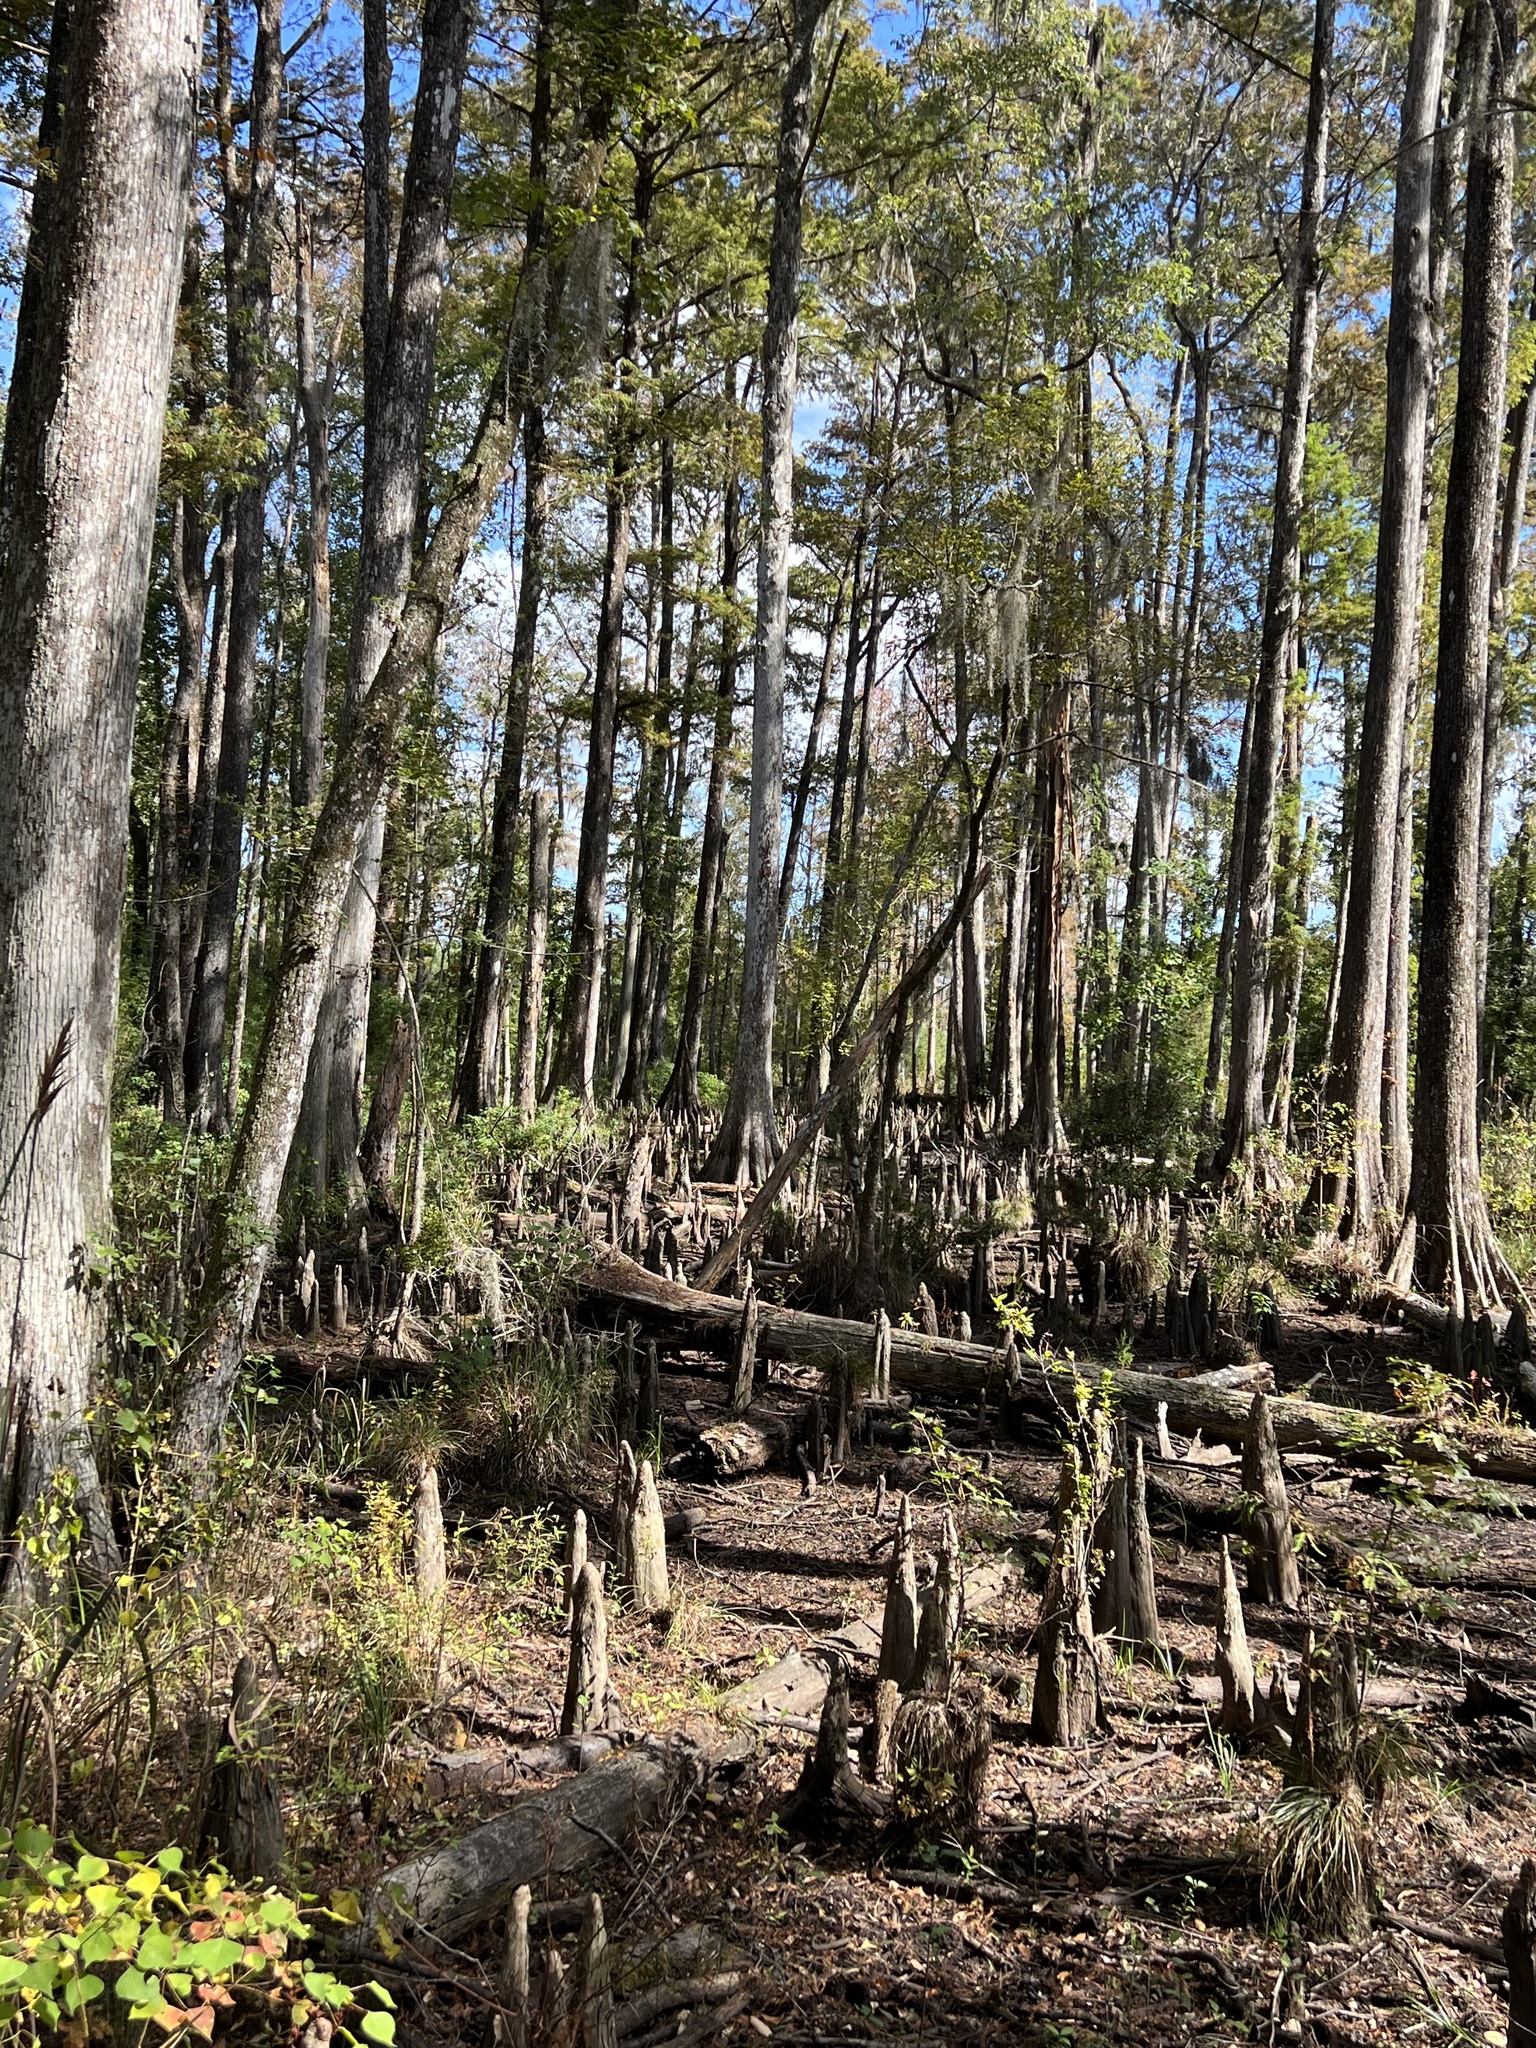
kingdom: Plantae
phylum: Tracheophyta
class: Pinopsida
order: Pinales
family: Cupressaceae
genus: Taxodium
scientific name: Taxodium distichum
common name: Bald cypress
